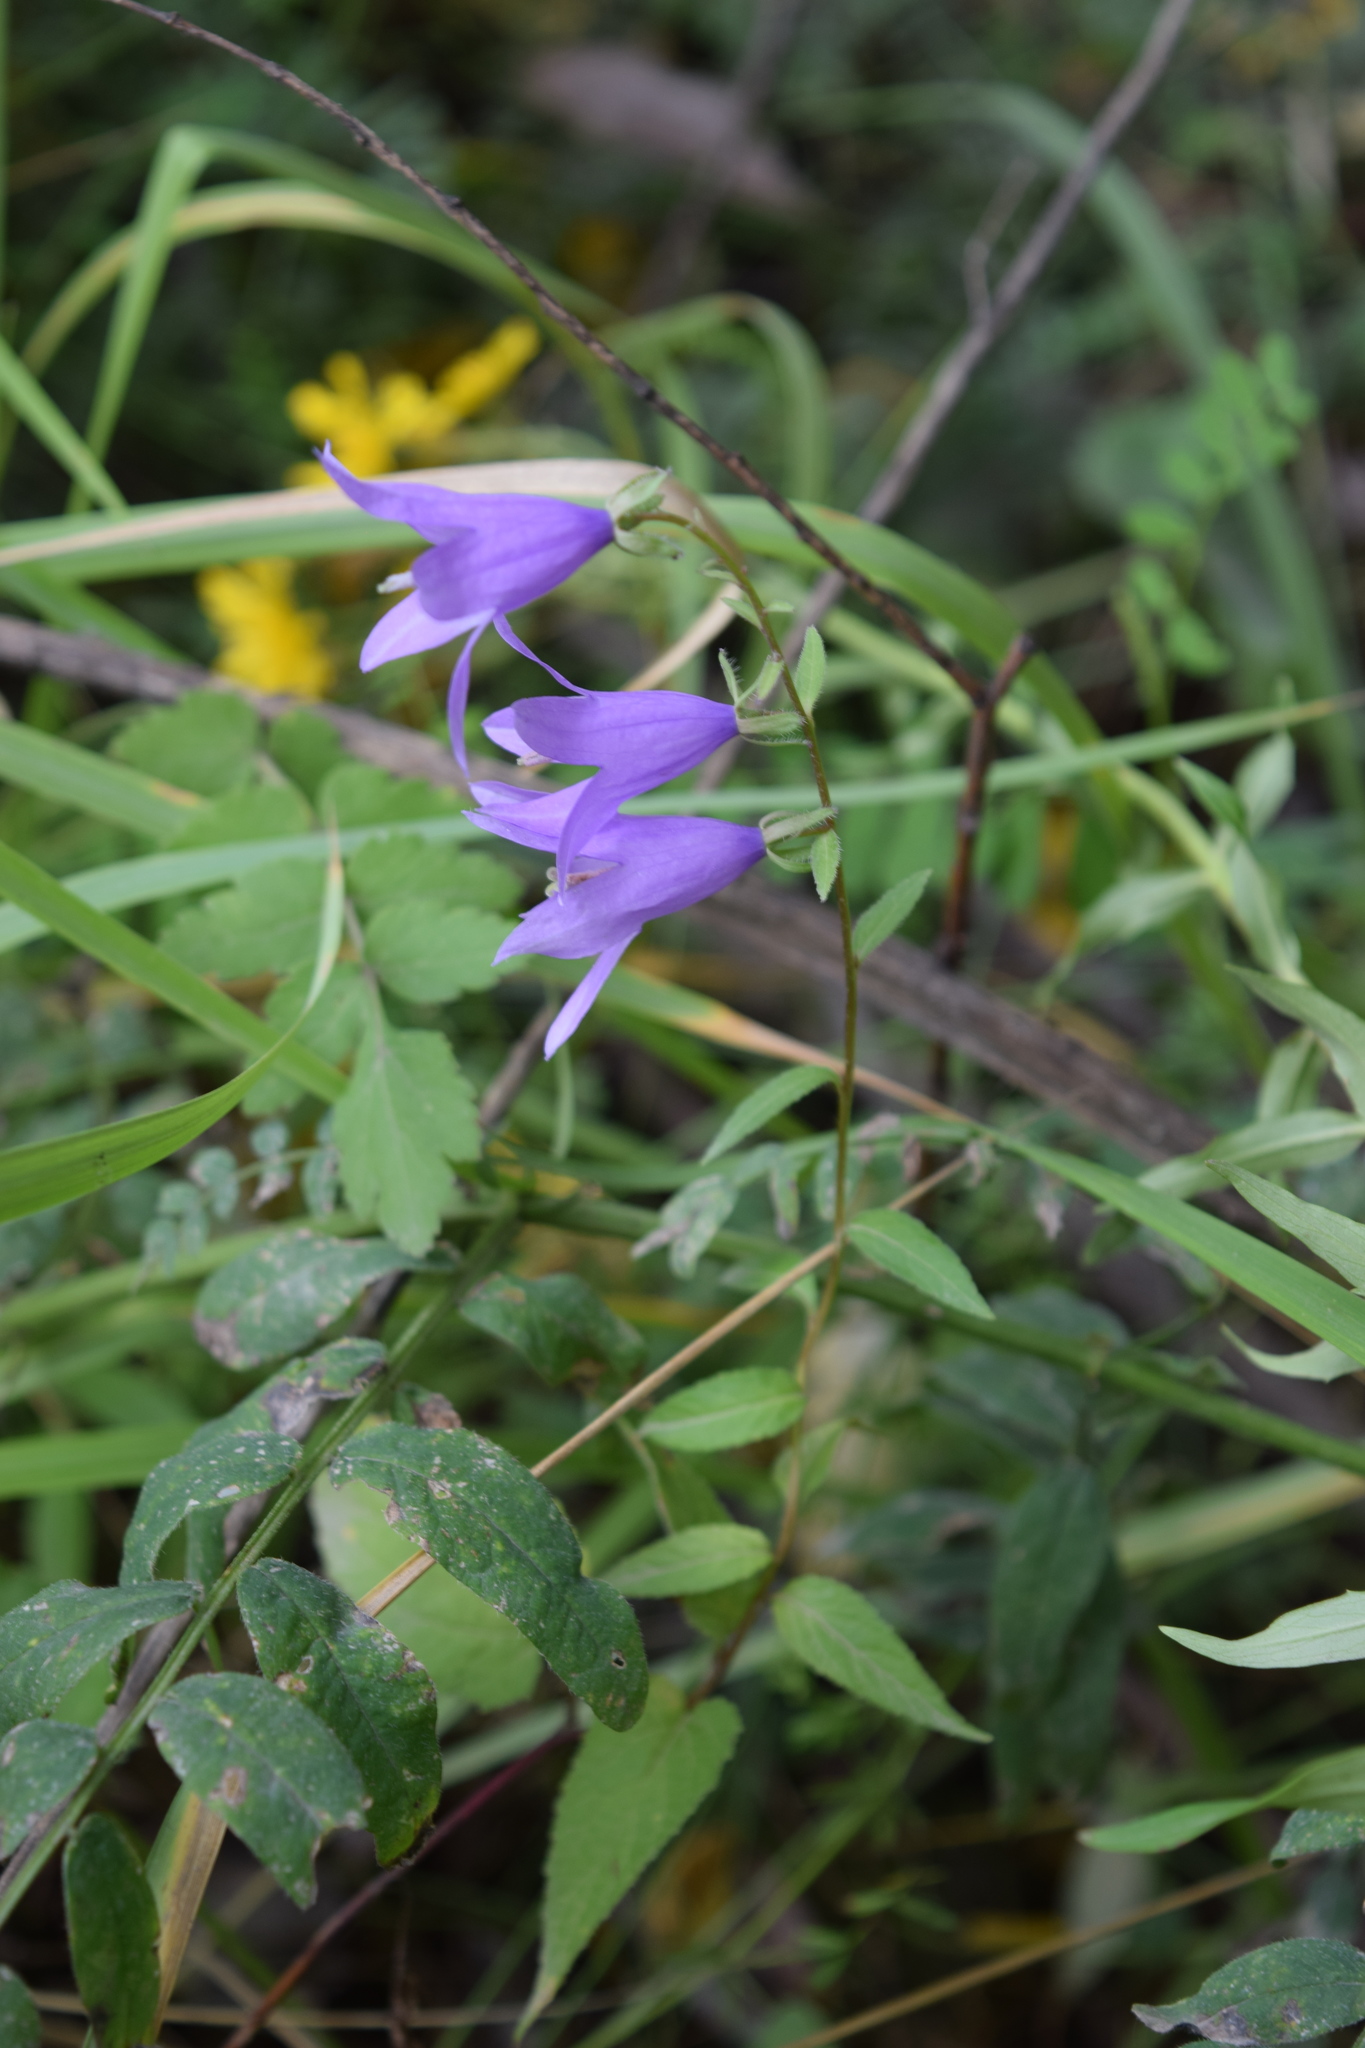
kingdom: Plantae
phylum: Tracheophyta
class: Magnoliopsida
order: Asterales
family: Campanulaceae
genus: Campanula
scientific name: Campanula rapunculoides
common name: Creeping bellflower
